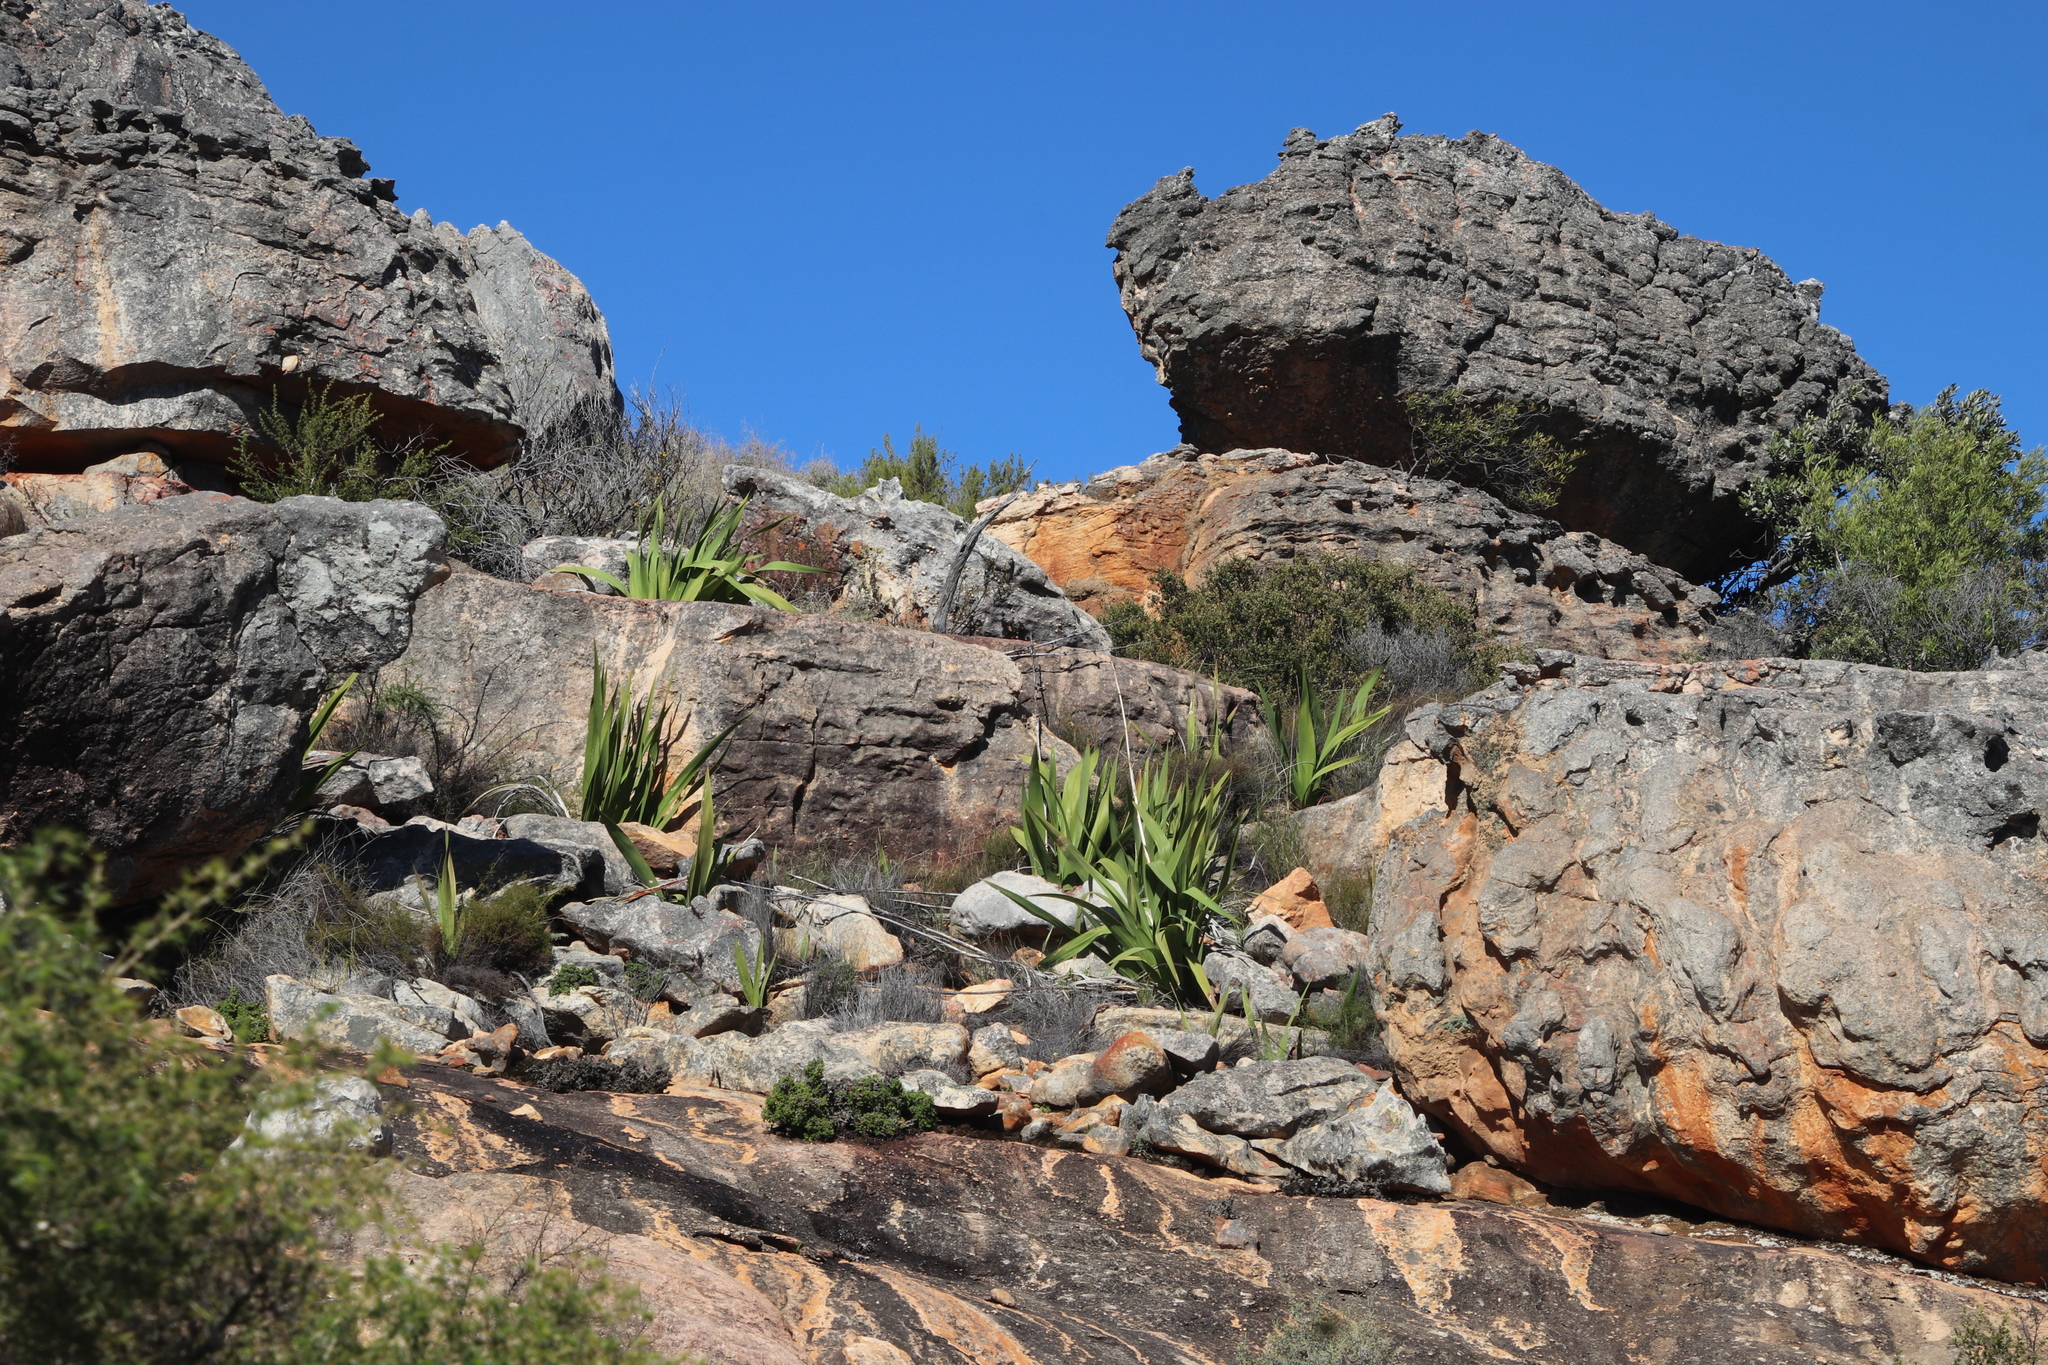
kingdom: Plantae
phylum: Tracheophyta
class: Liliopsida
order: Asparagales
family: Iridaceae
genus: Watsonia
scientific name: Watsonia vanderspuyae
